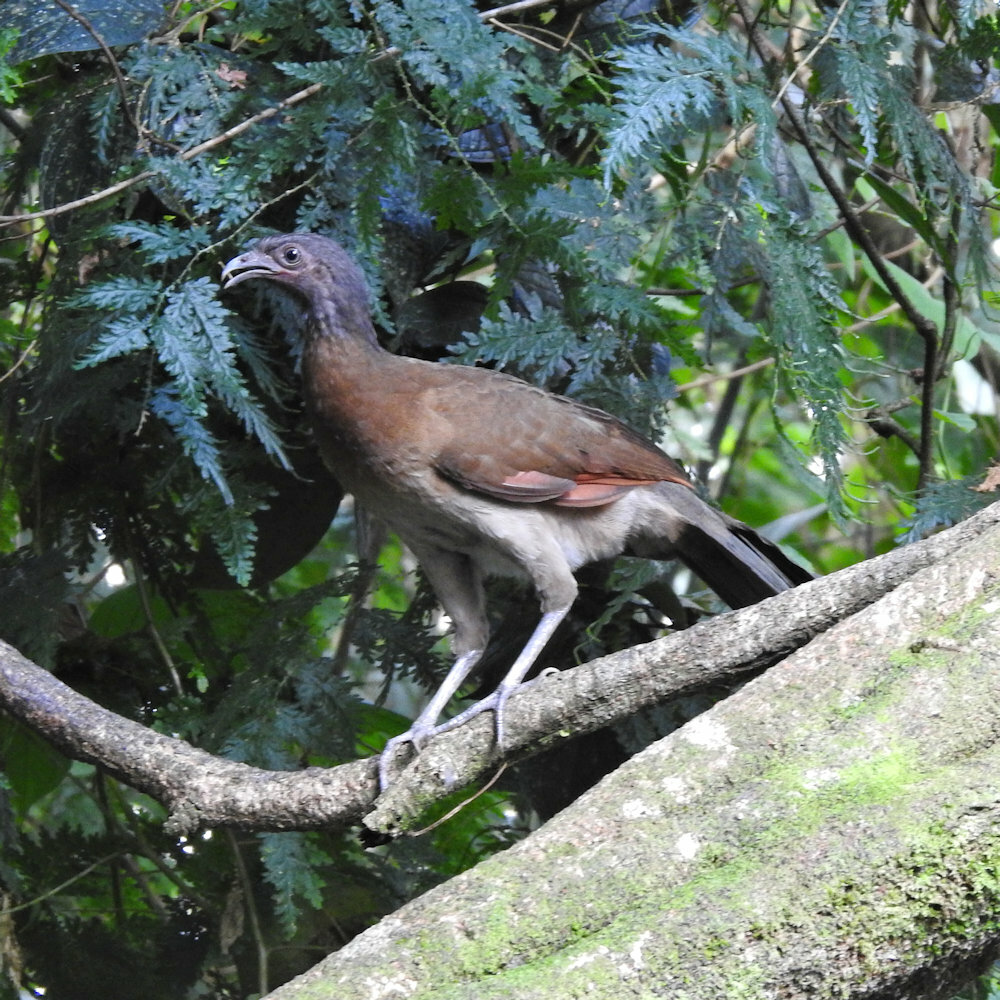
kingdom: Animalia
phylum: Chordata
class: Aves
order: Galliformes
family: Cracidae
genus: Ortalis
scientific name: Ortalis cinereiceps
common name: Grey-headed chachalaca
